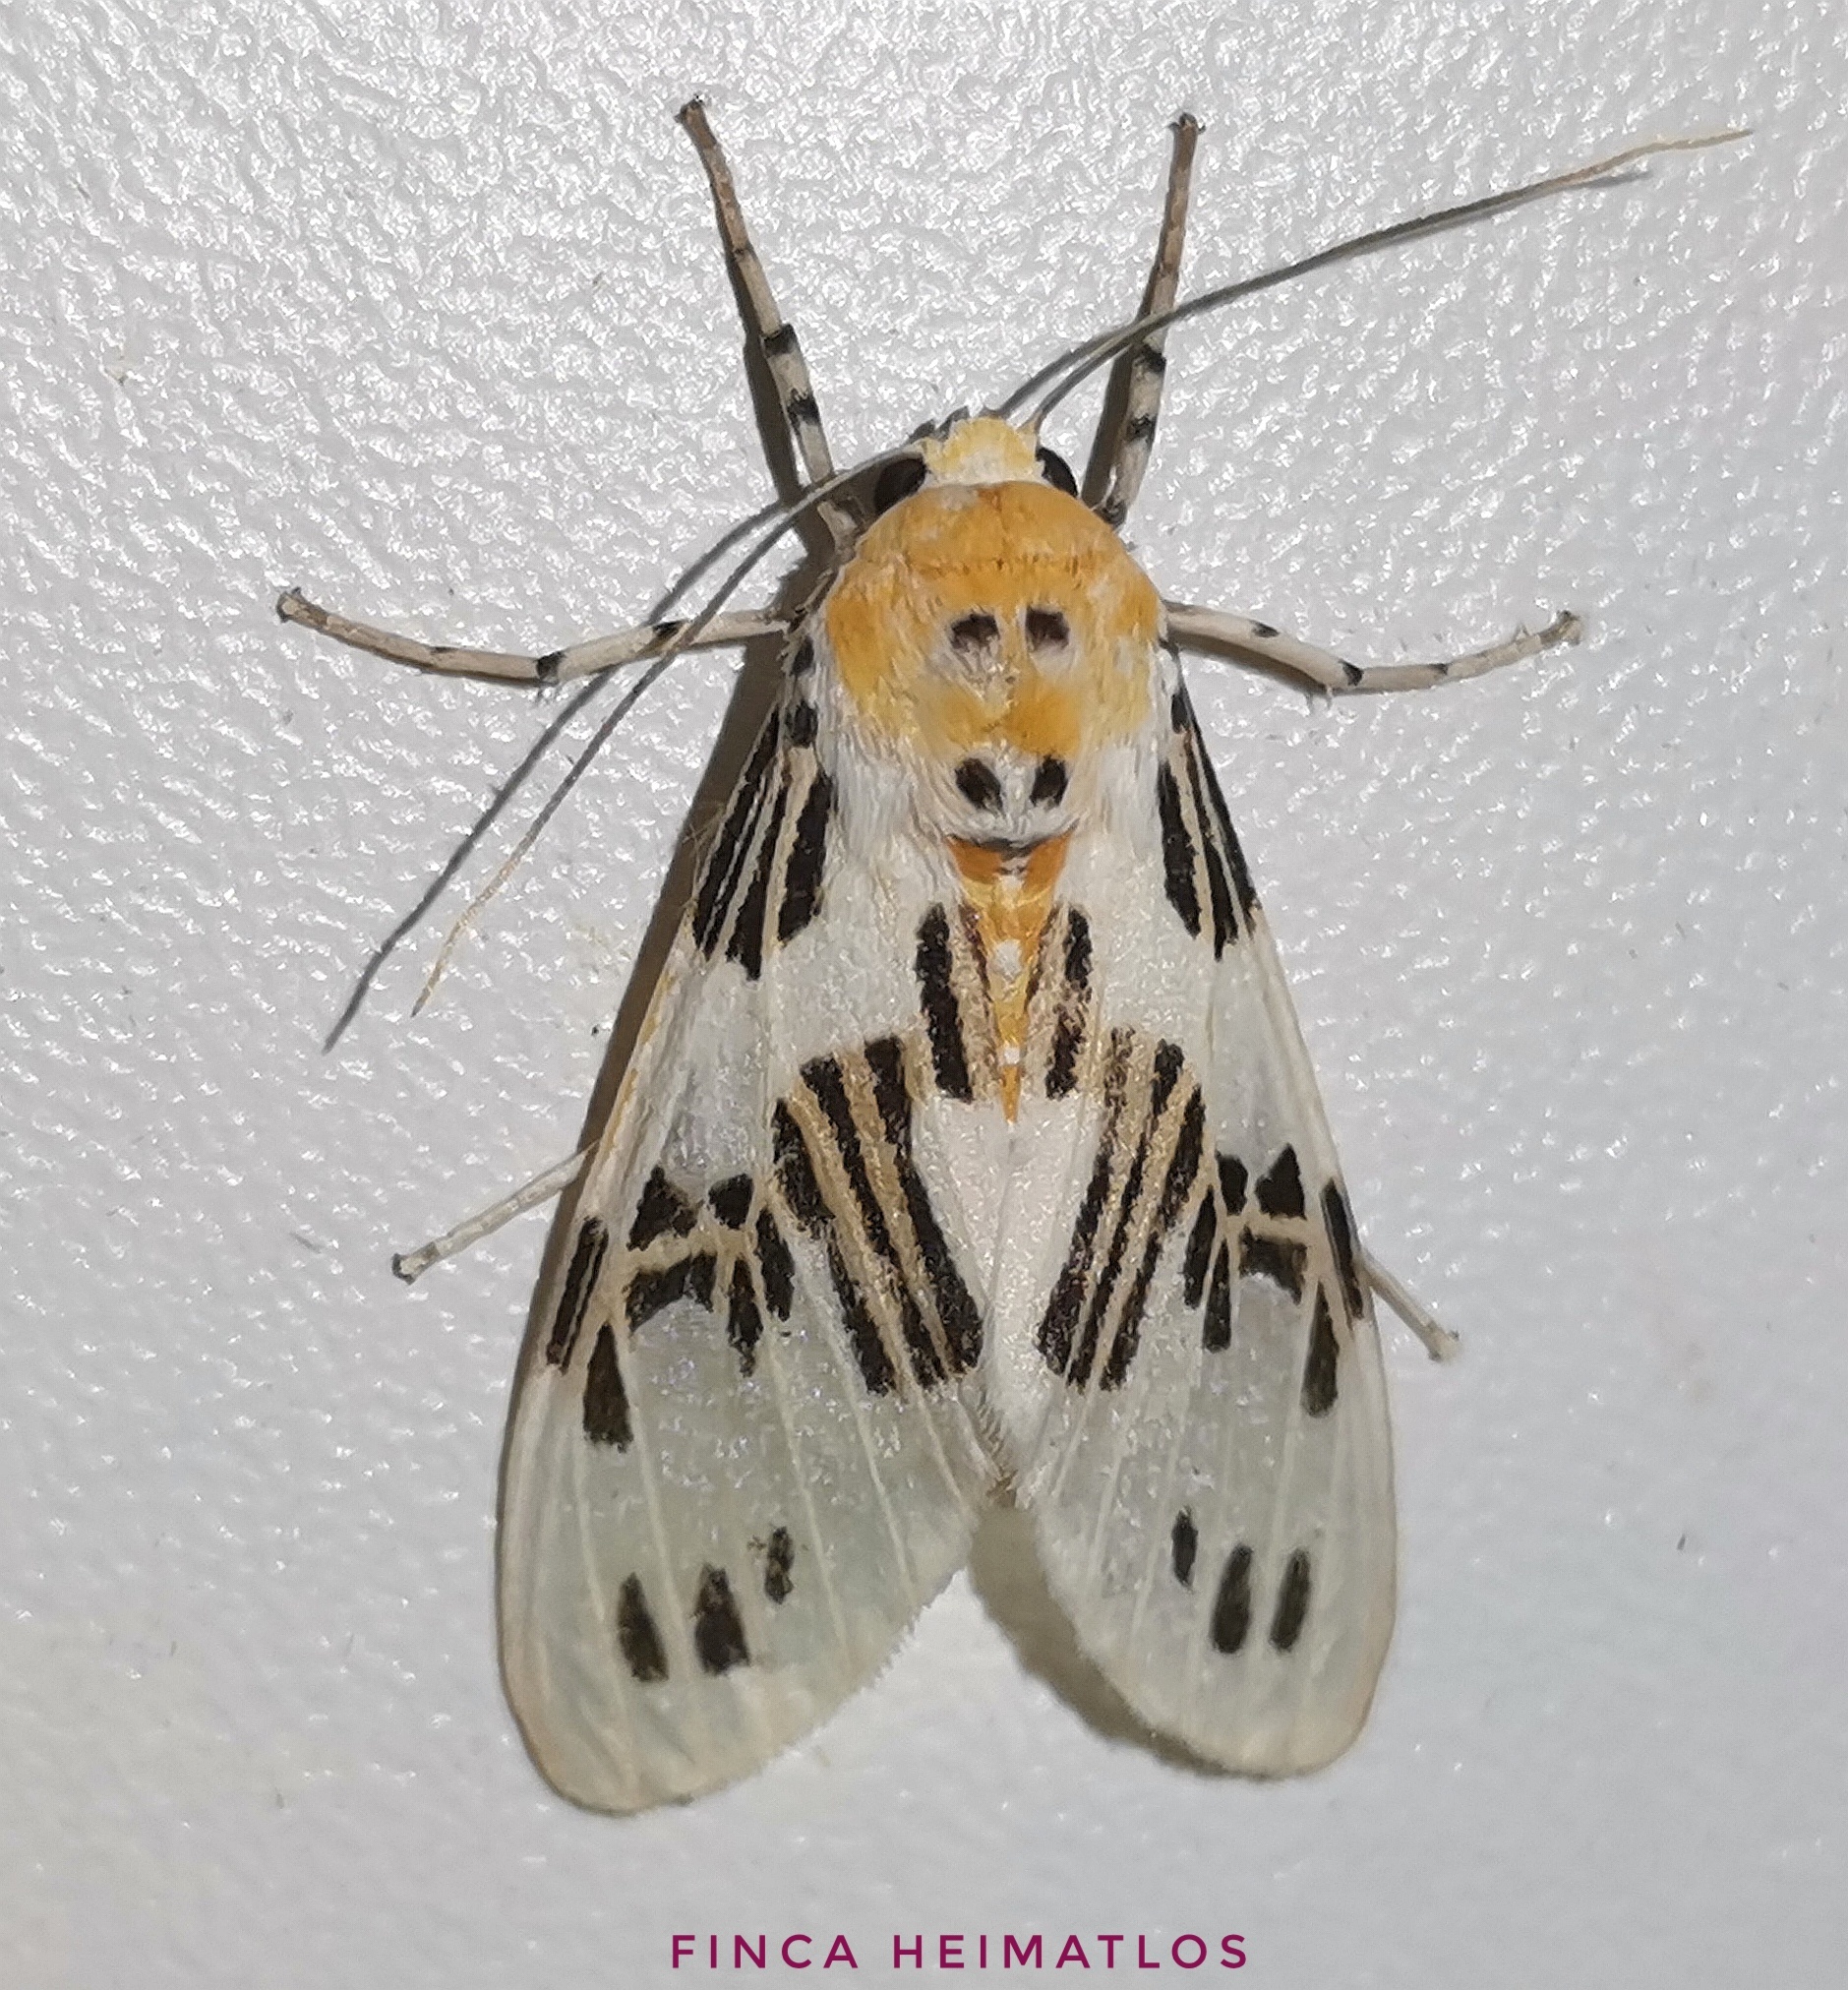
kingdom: Animalia
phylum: Arthropoda
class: Insecta
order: Lepidoptera
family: Erebidae
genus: Idalus
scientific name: Idalus daga
